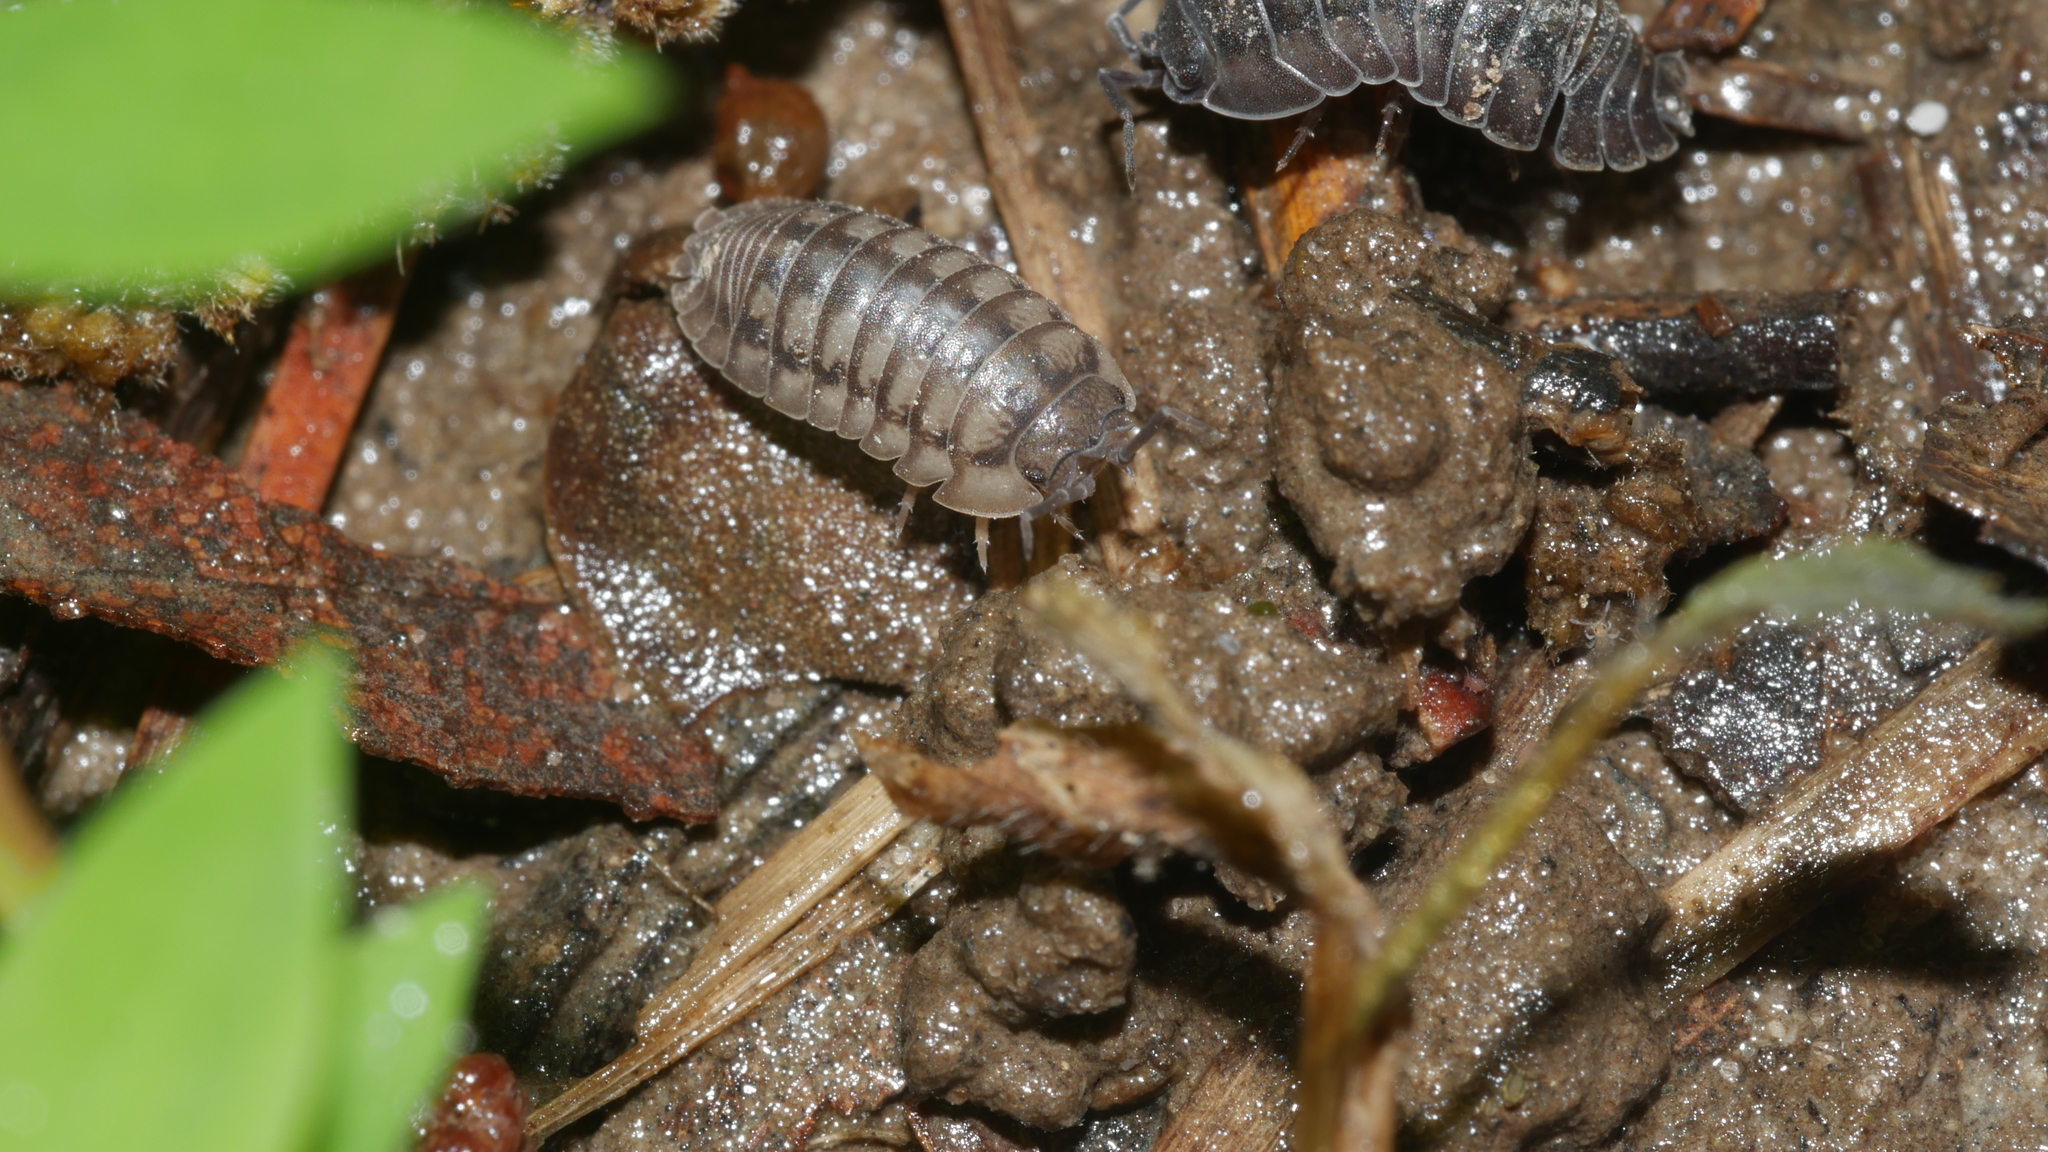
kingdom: Animalia
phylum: Arthropoda
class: Malacostraca
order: Isopoda
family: Armadillidiidae
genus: Armadillidium
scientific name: Armadillidium nasatum
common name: Isopod
